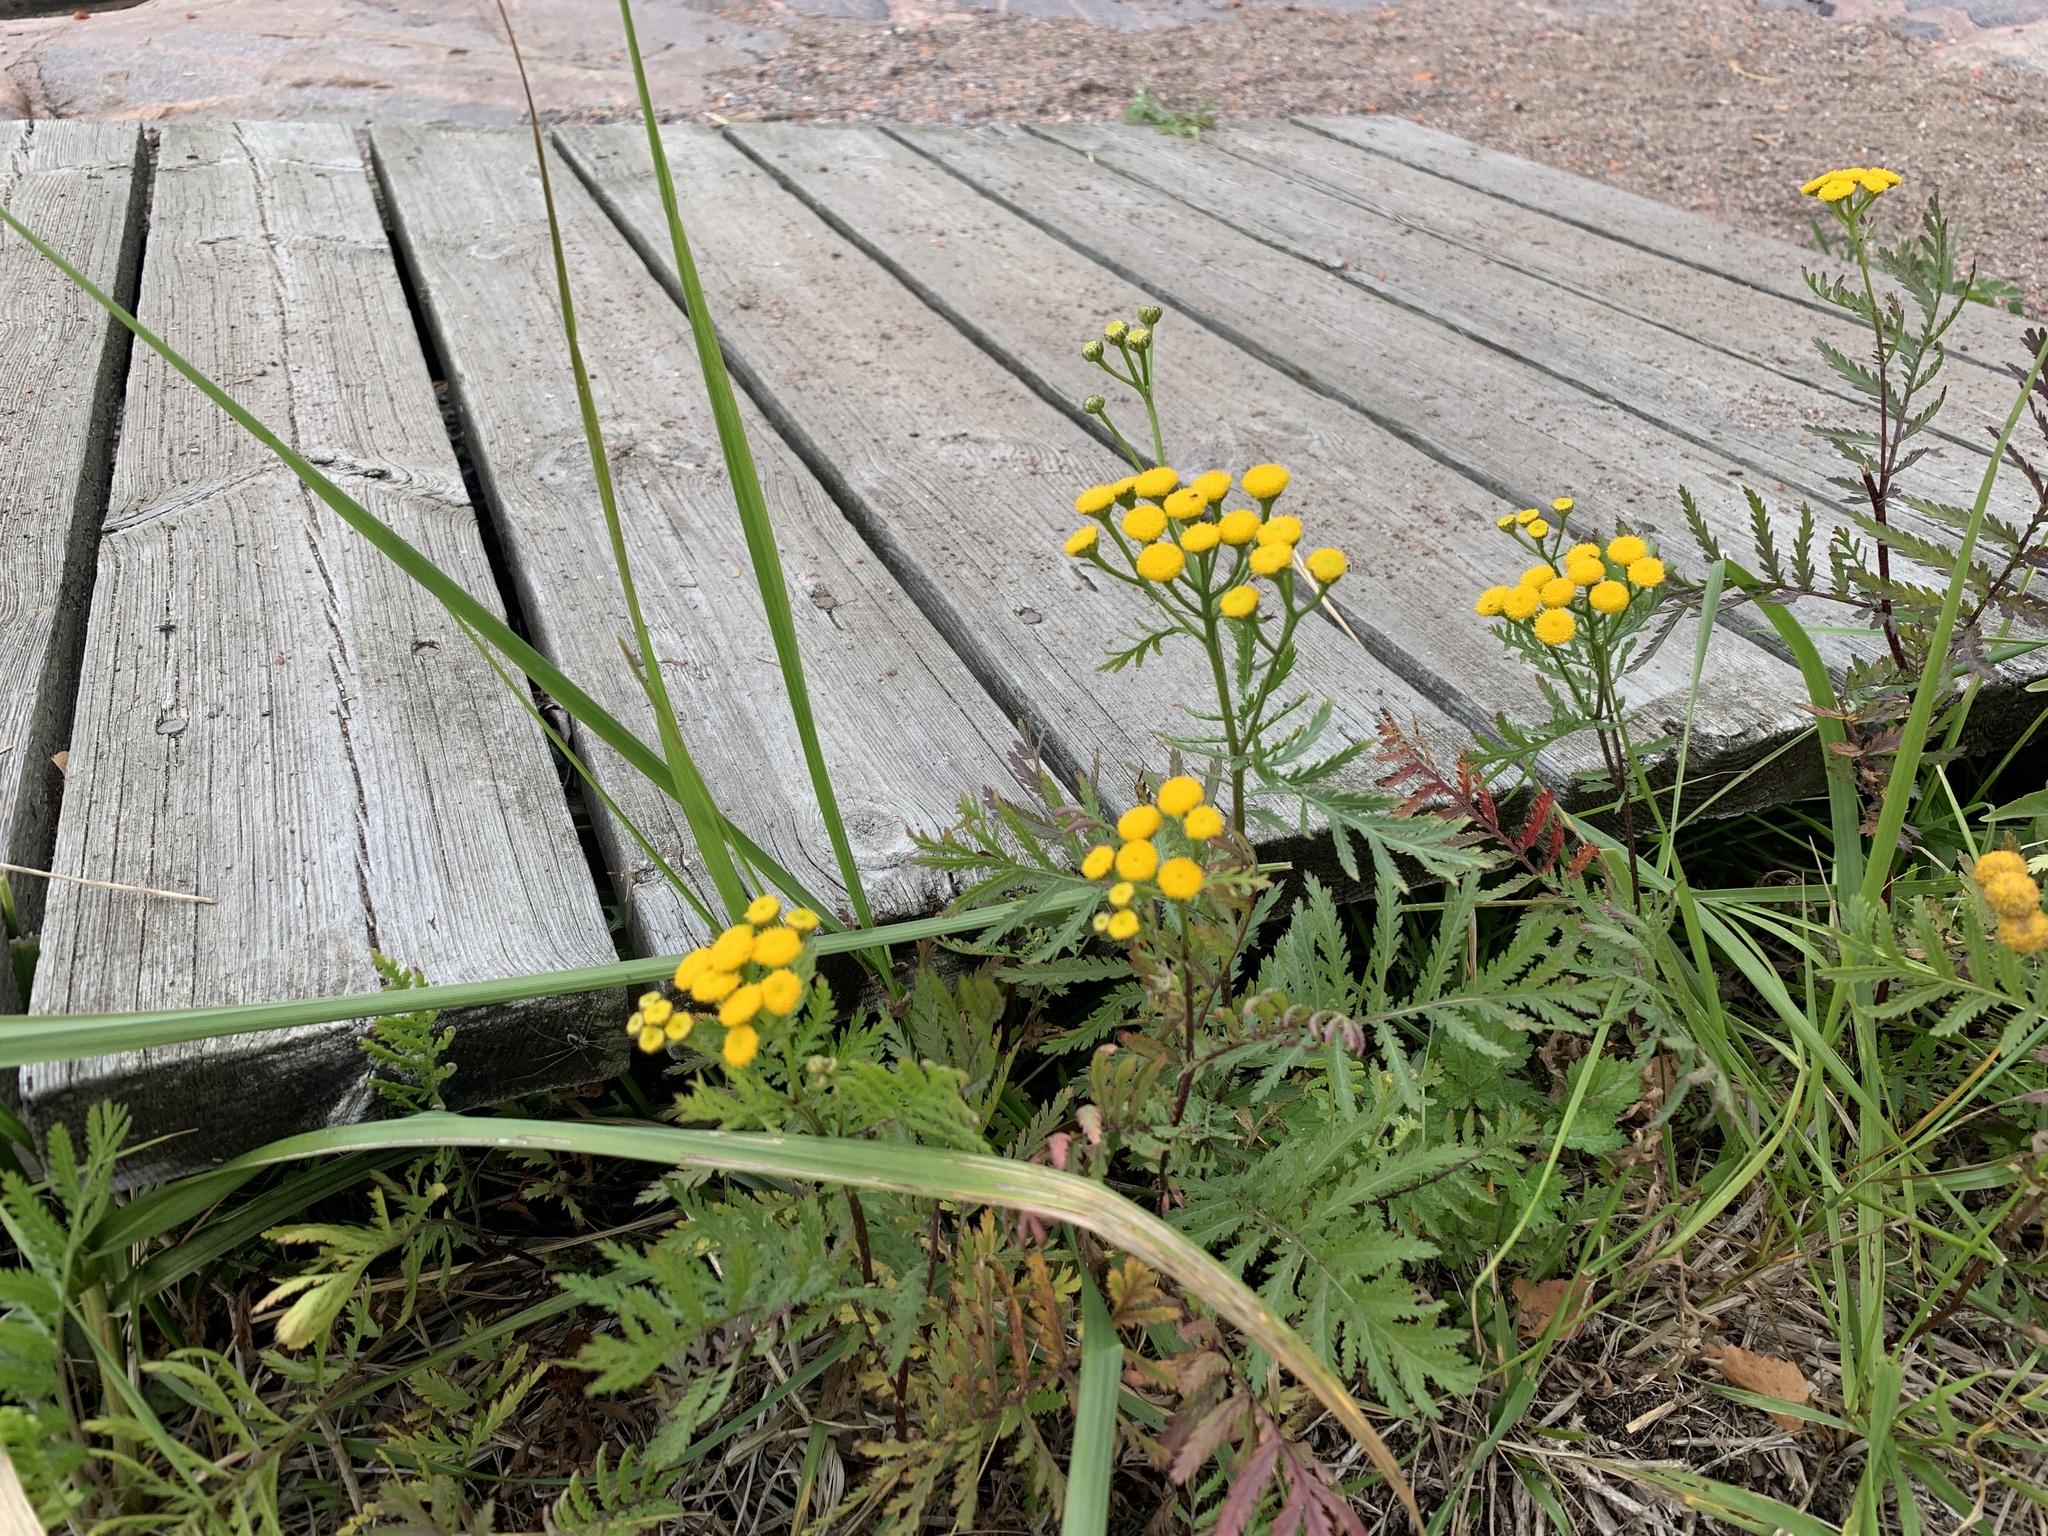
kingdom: Plantae
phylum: Tracheophyta
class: Magnoliopsida
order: Asterales
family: Asteraceae
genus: Tanacetum
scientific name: Tanacetum vulgare
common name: Common tansy
